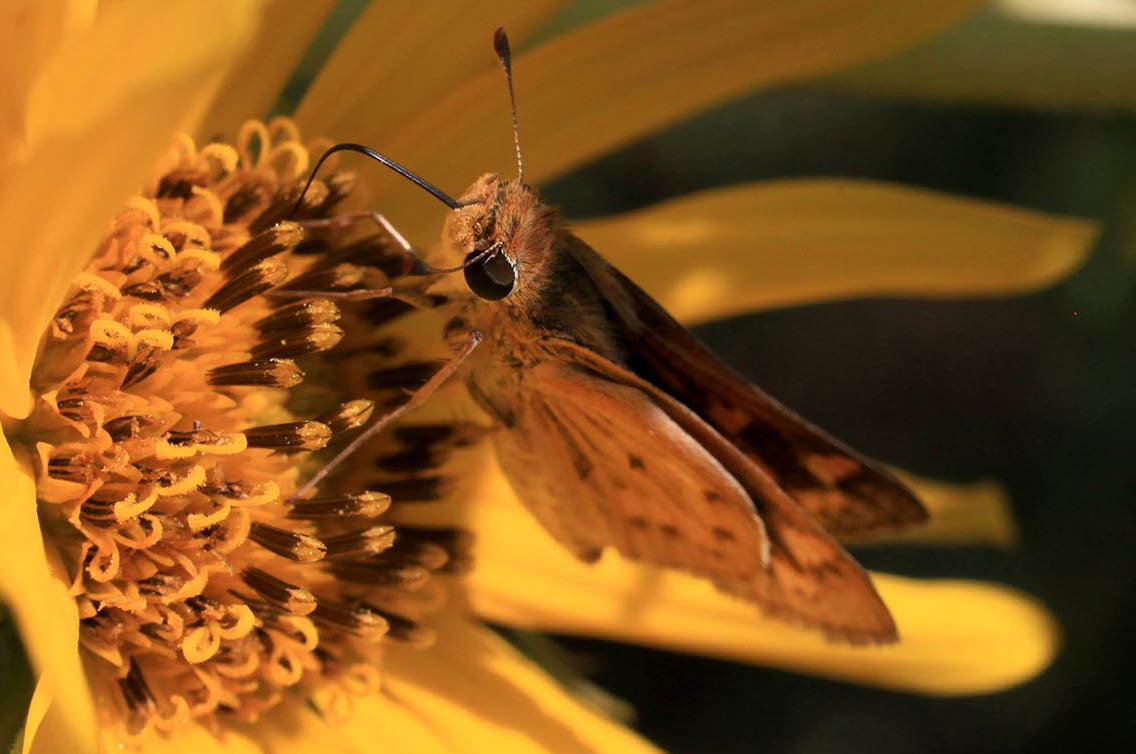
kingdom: Animalia
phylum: Arthropoda
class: Insecta
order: Lepidoptera
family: Hesperiidae
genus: Hylephila
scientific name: Hylephila phyleus
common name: Fiery skipper
